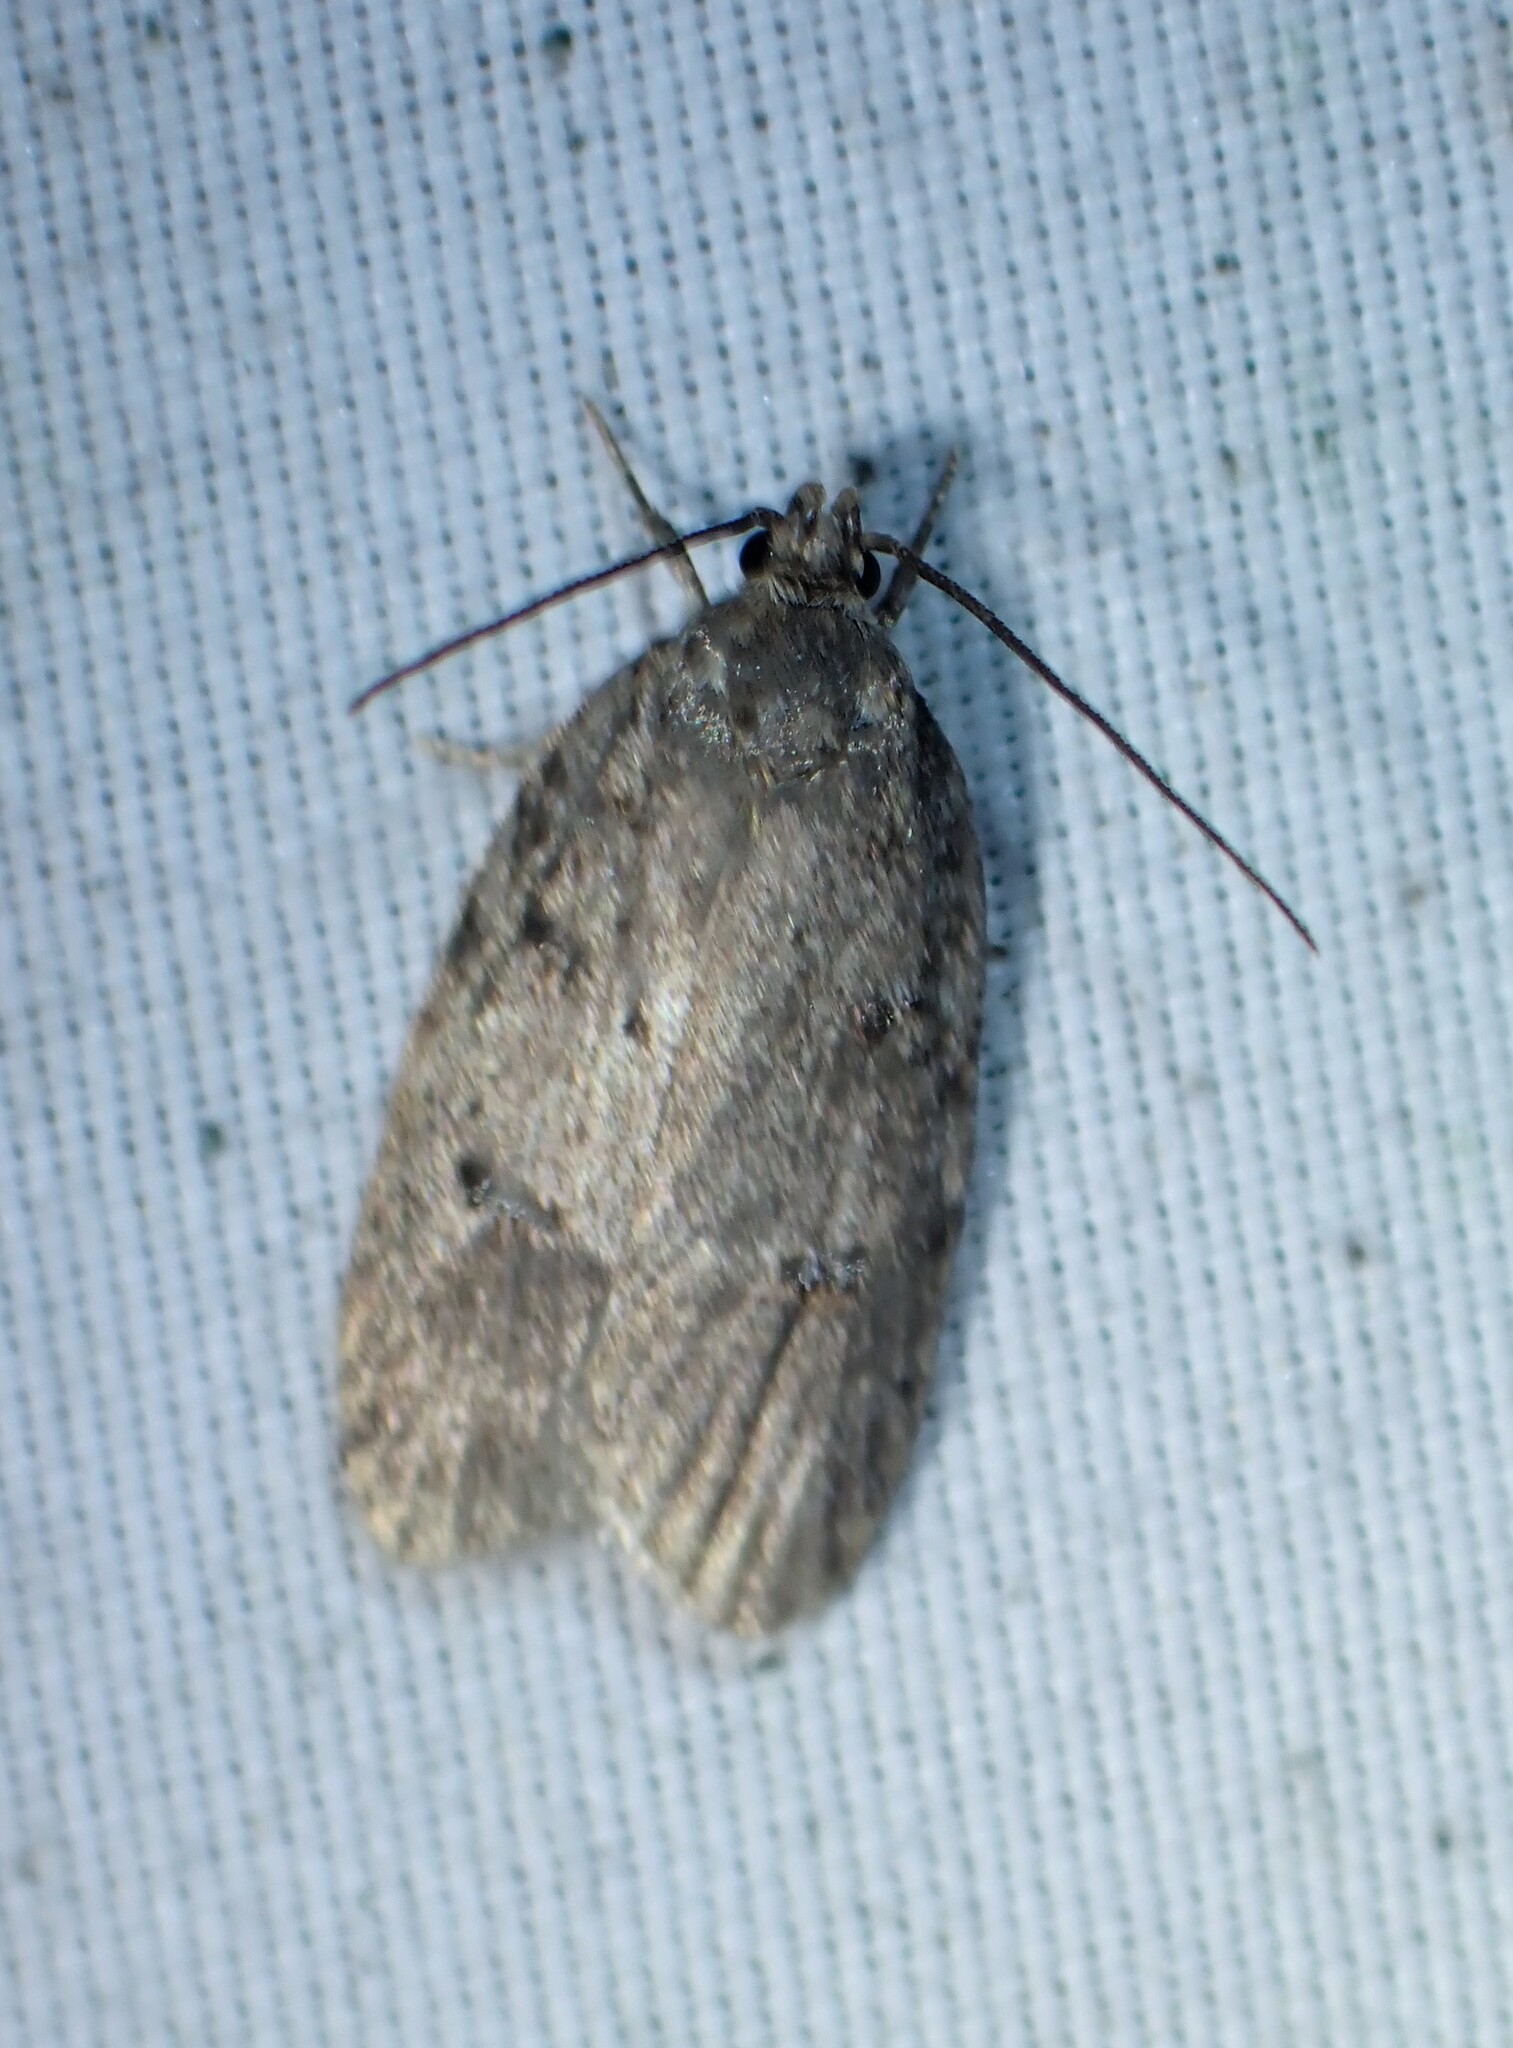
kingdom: Animalia
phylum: Arthropoda
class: Insecta
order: Lepidoptera
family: Depressariidae
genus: Bibarrambla
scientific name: Bibarrambla allenella
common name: Bog bibarrambla moth
